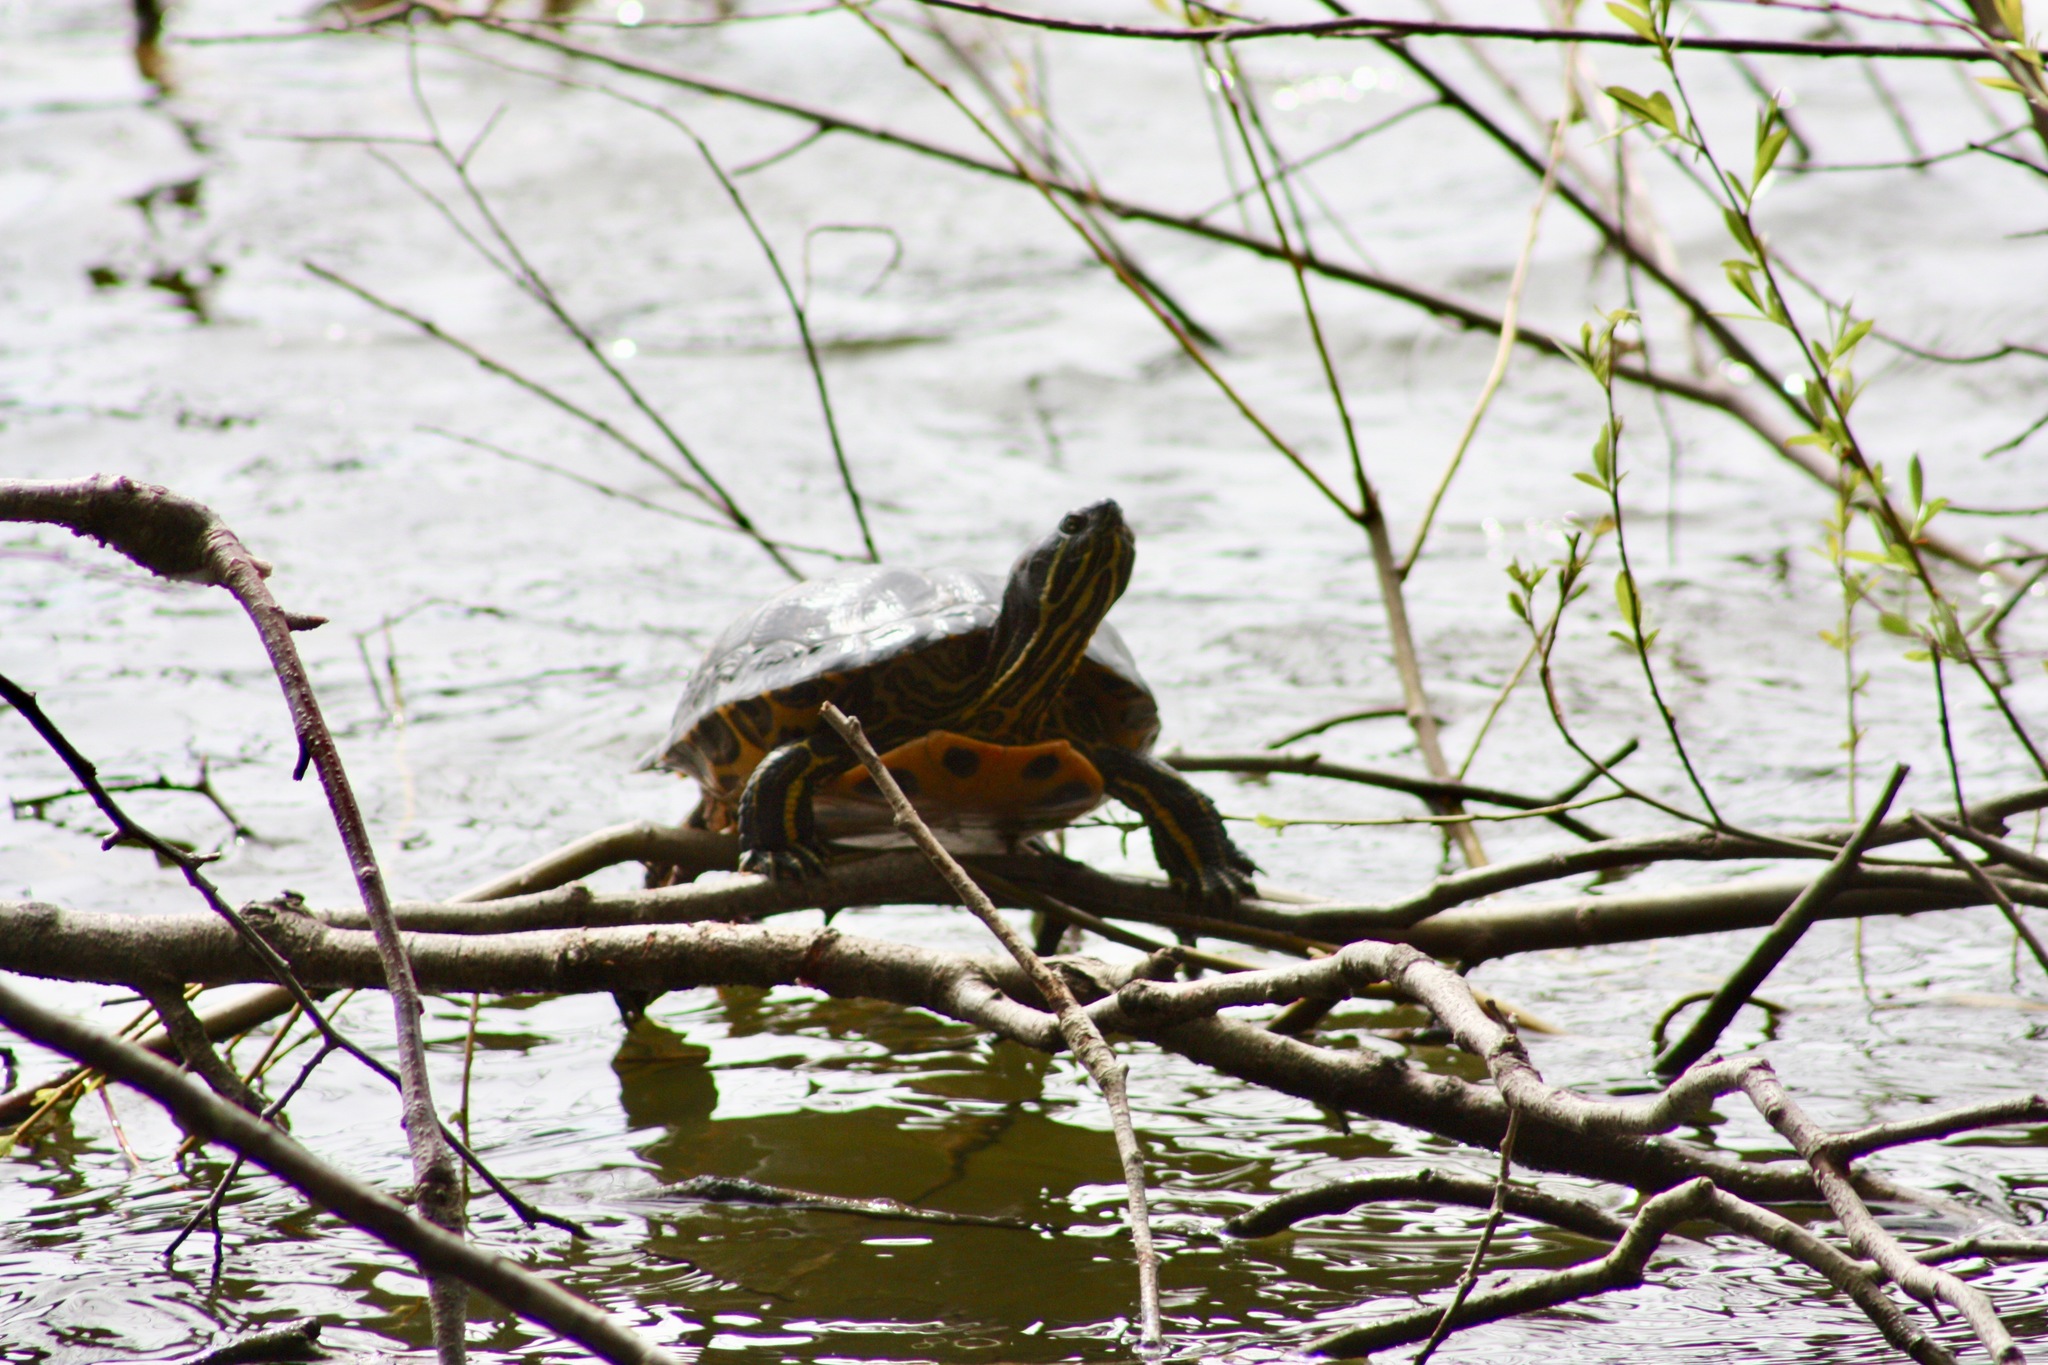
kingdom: Animalia
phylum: Chordata
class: Testudines
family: Emydidae
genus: Trachemys
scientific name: Trachemys scripta
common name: Slider
